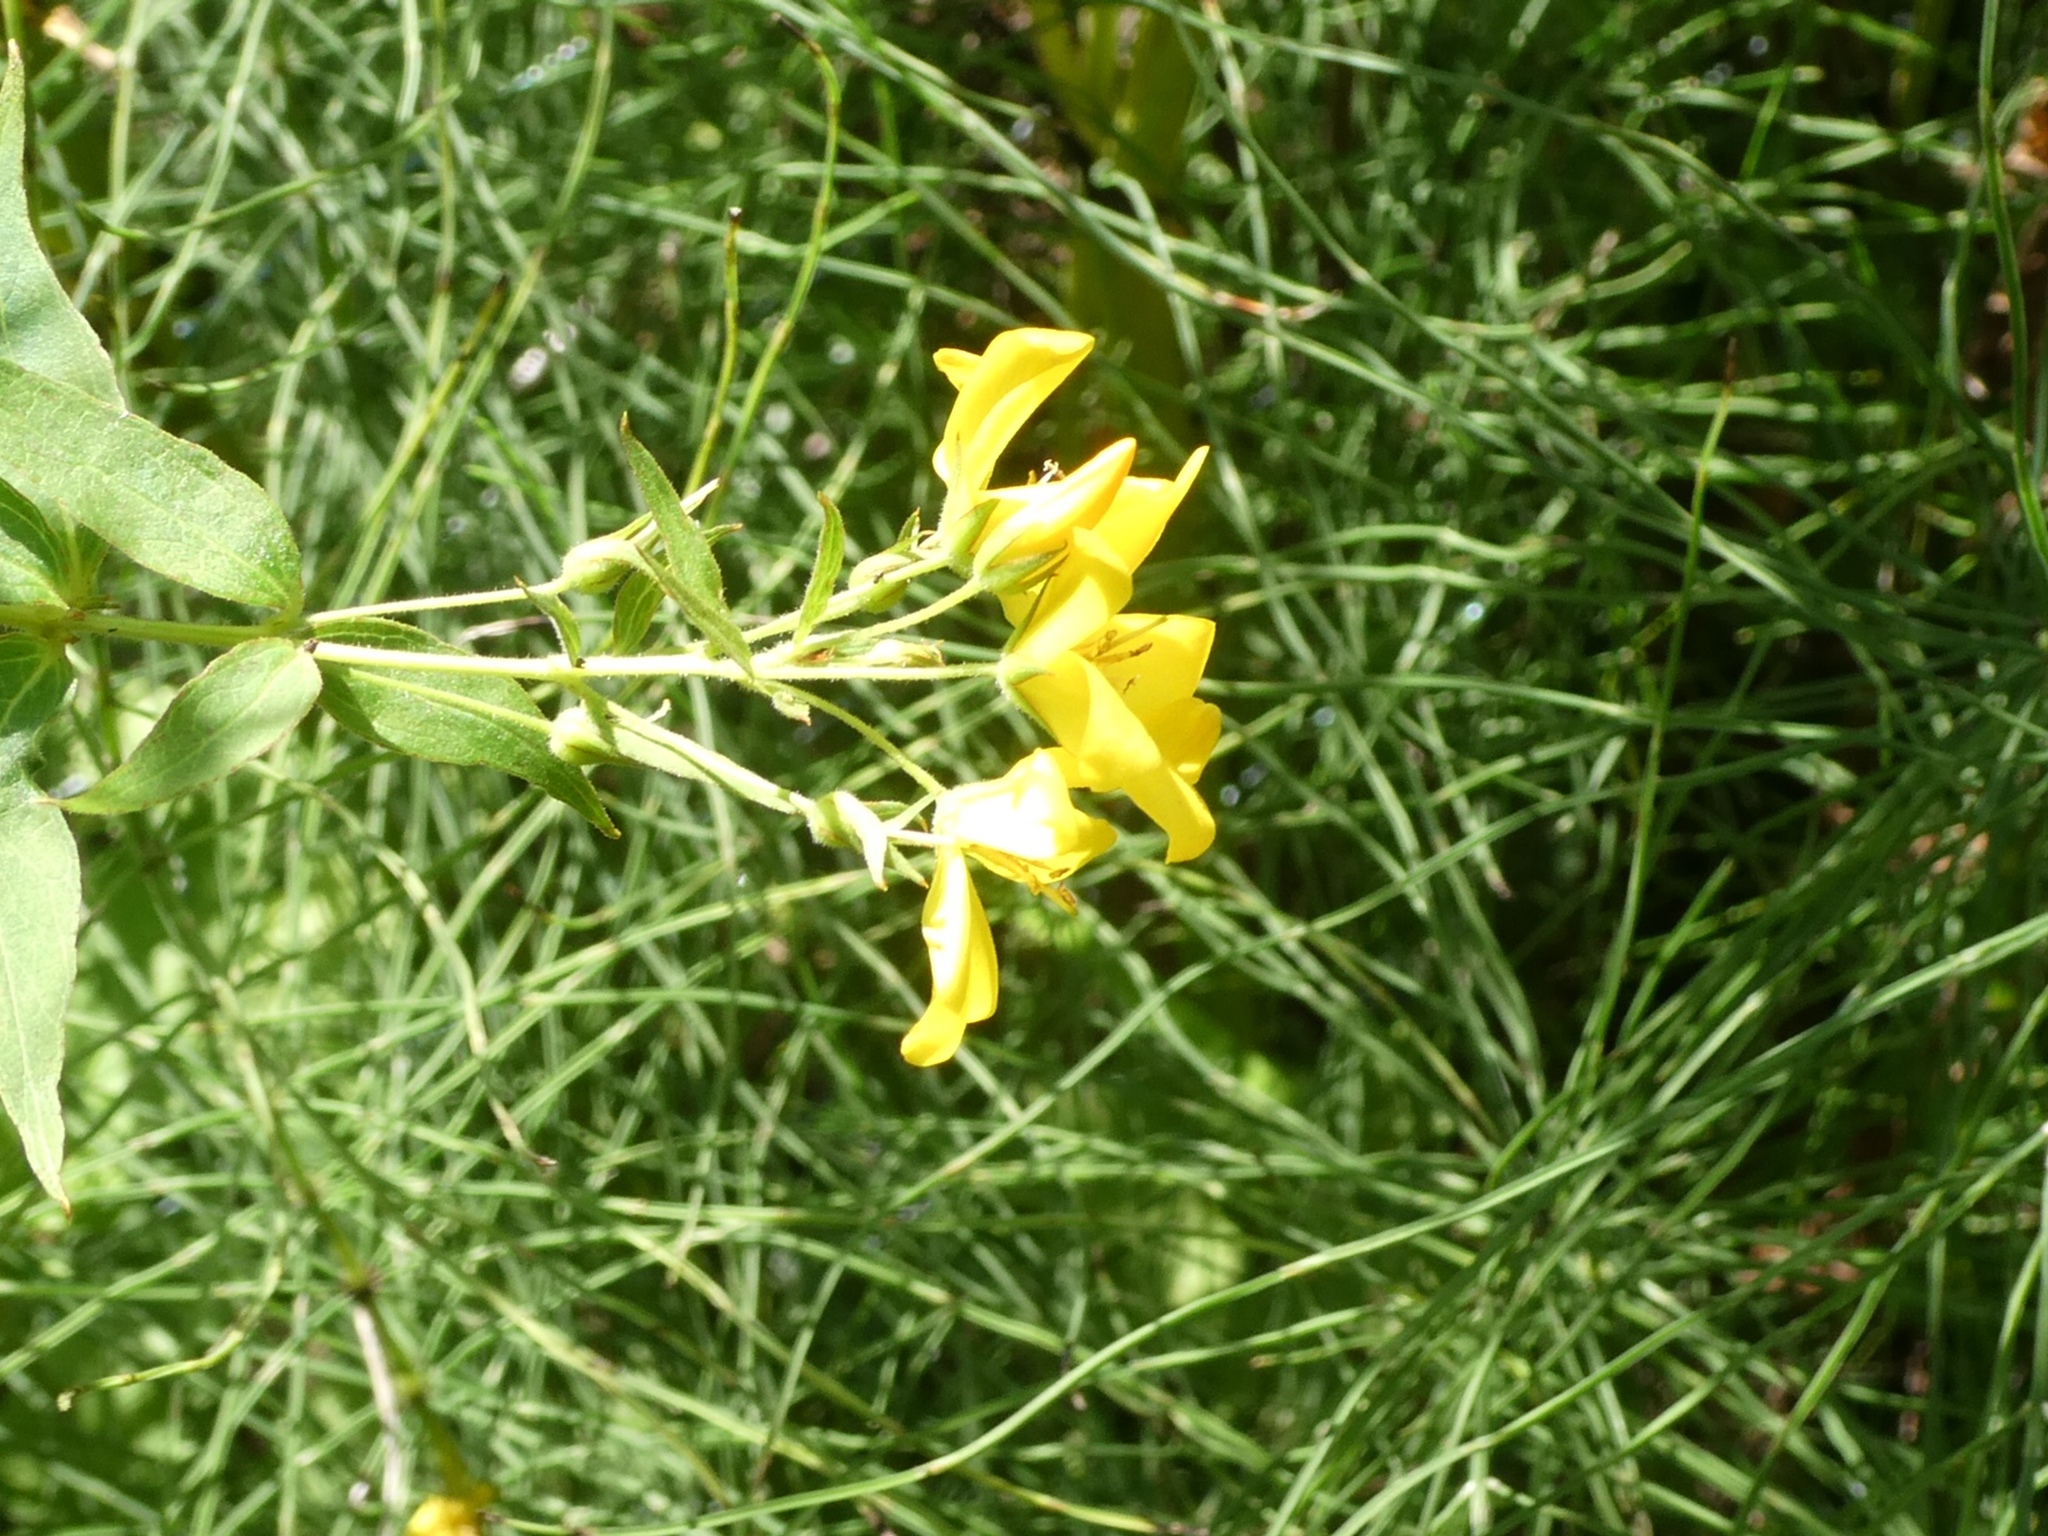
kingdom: Plantae
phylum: Tracheophyta
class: Magnoliopsida
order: Ericales
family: Primulaceae
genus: Lysimachia
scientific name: Lysimachia vulgaris
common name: Yellow loosestrife
